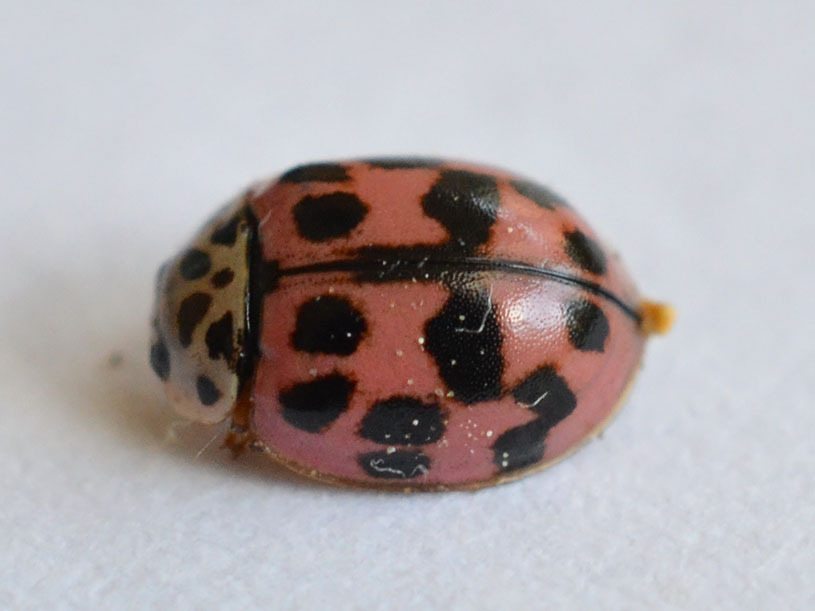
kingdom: Animalia
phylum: Arthropoda
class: Insecta
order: Coleoptera
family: Coccinellidae
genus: Oenopia
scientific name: Oenopia conglobata
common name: Ladybird beetle
